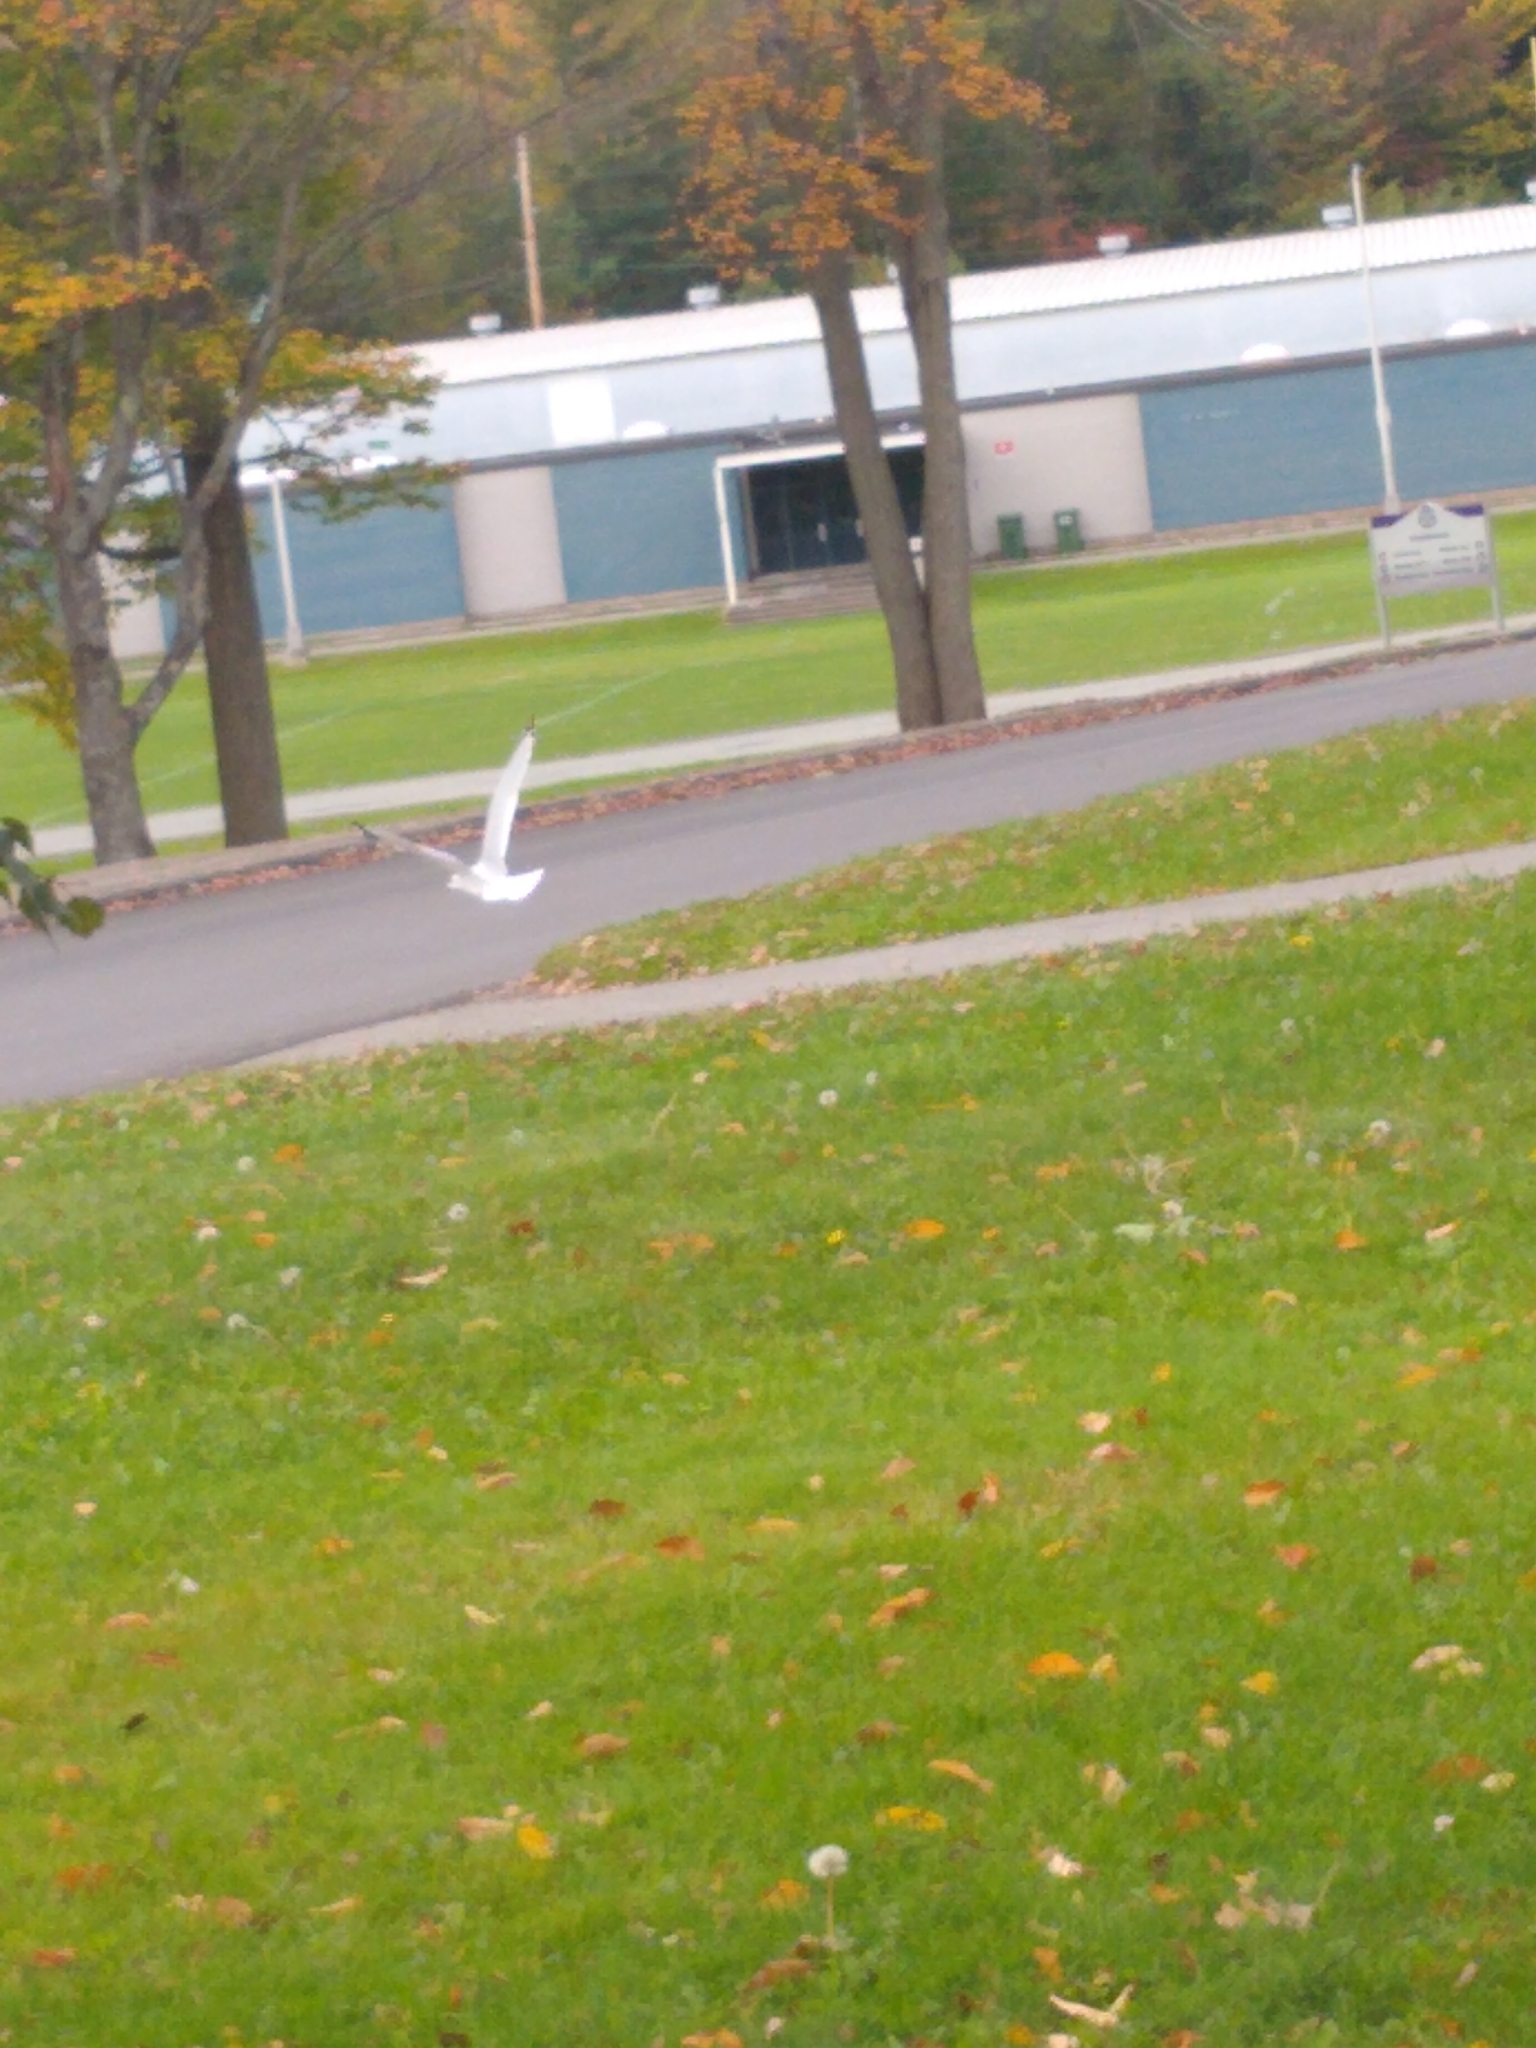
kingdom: Animalia
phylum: Chordata
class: Aves
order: Charadriiformes
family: Laridae
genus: Larus
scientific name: Larus delawarensis
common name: Ring-billed gull
